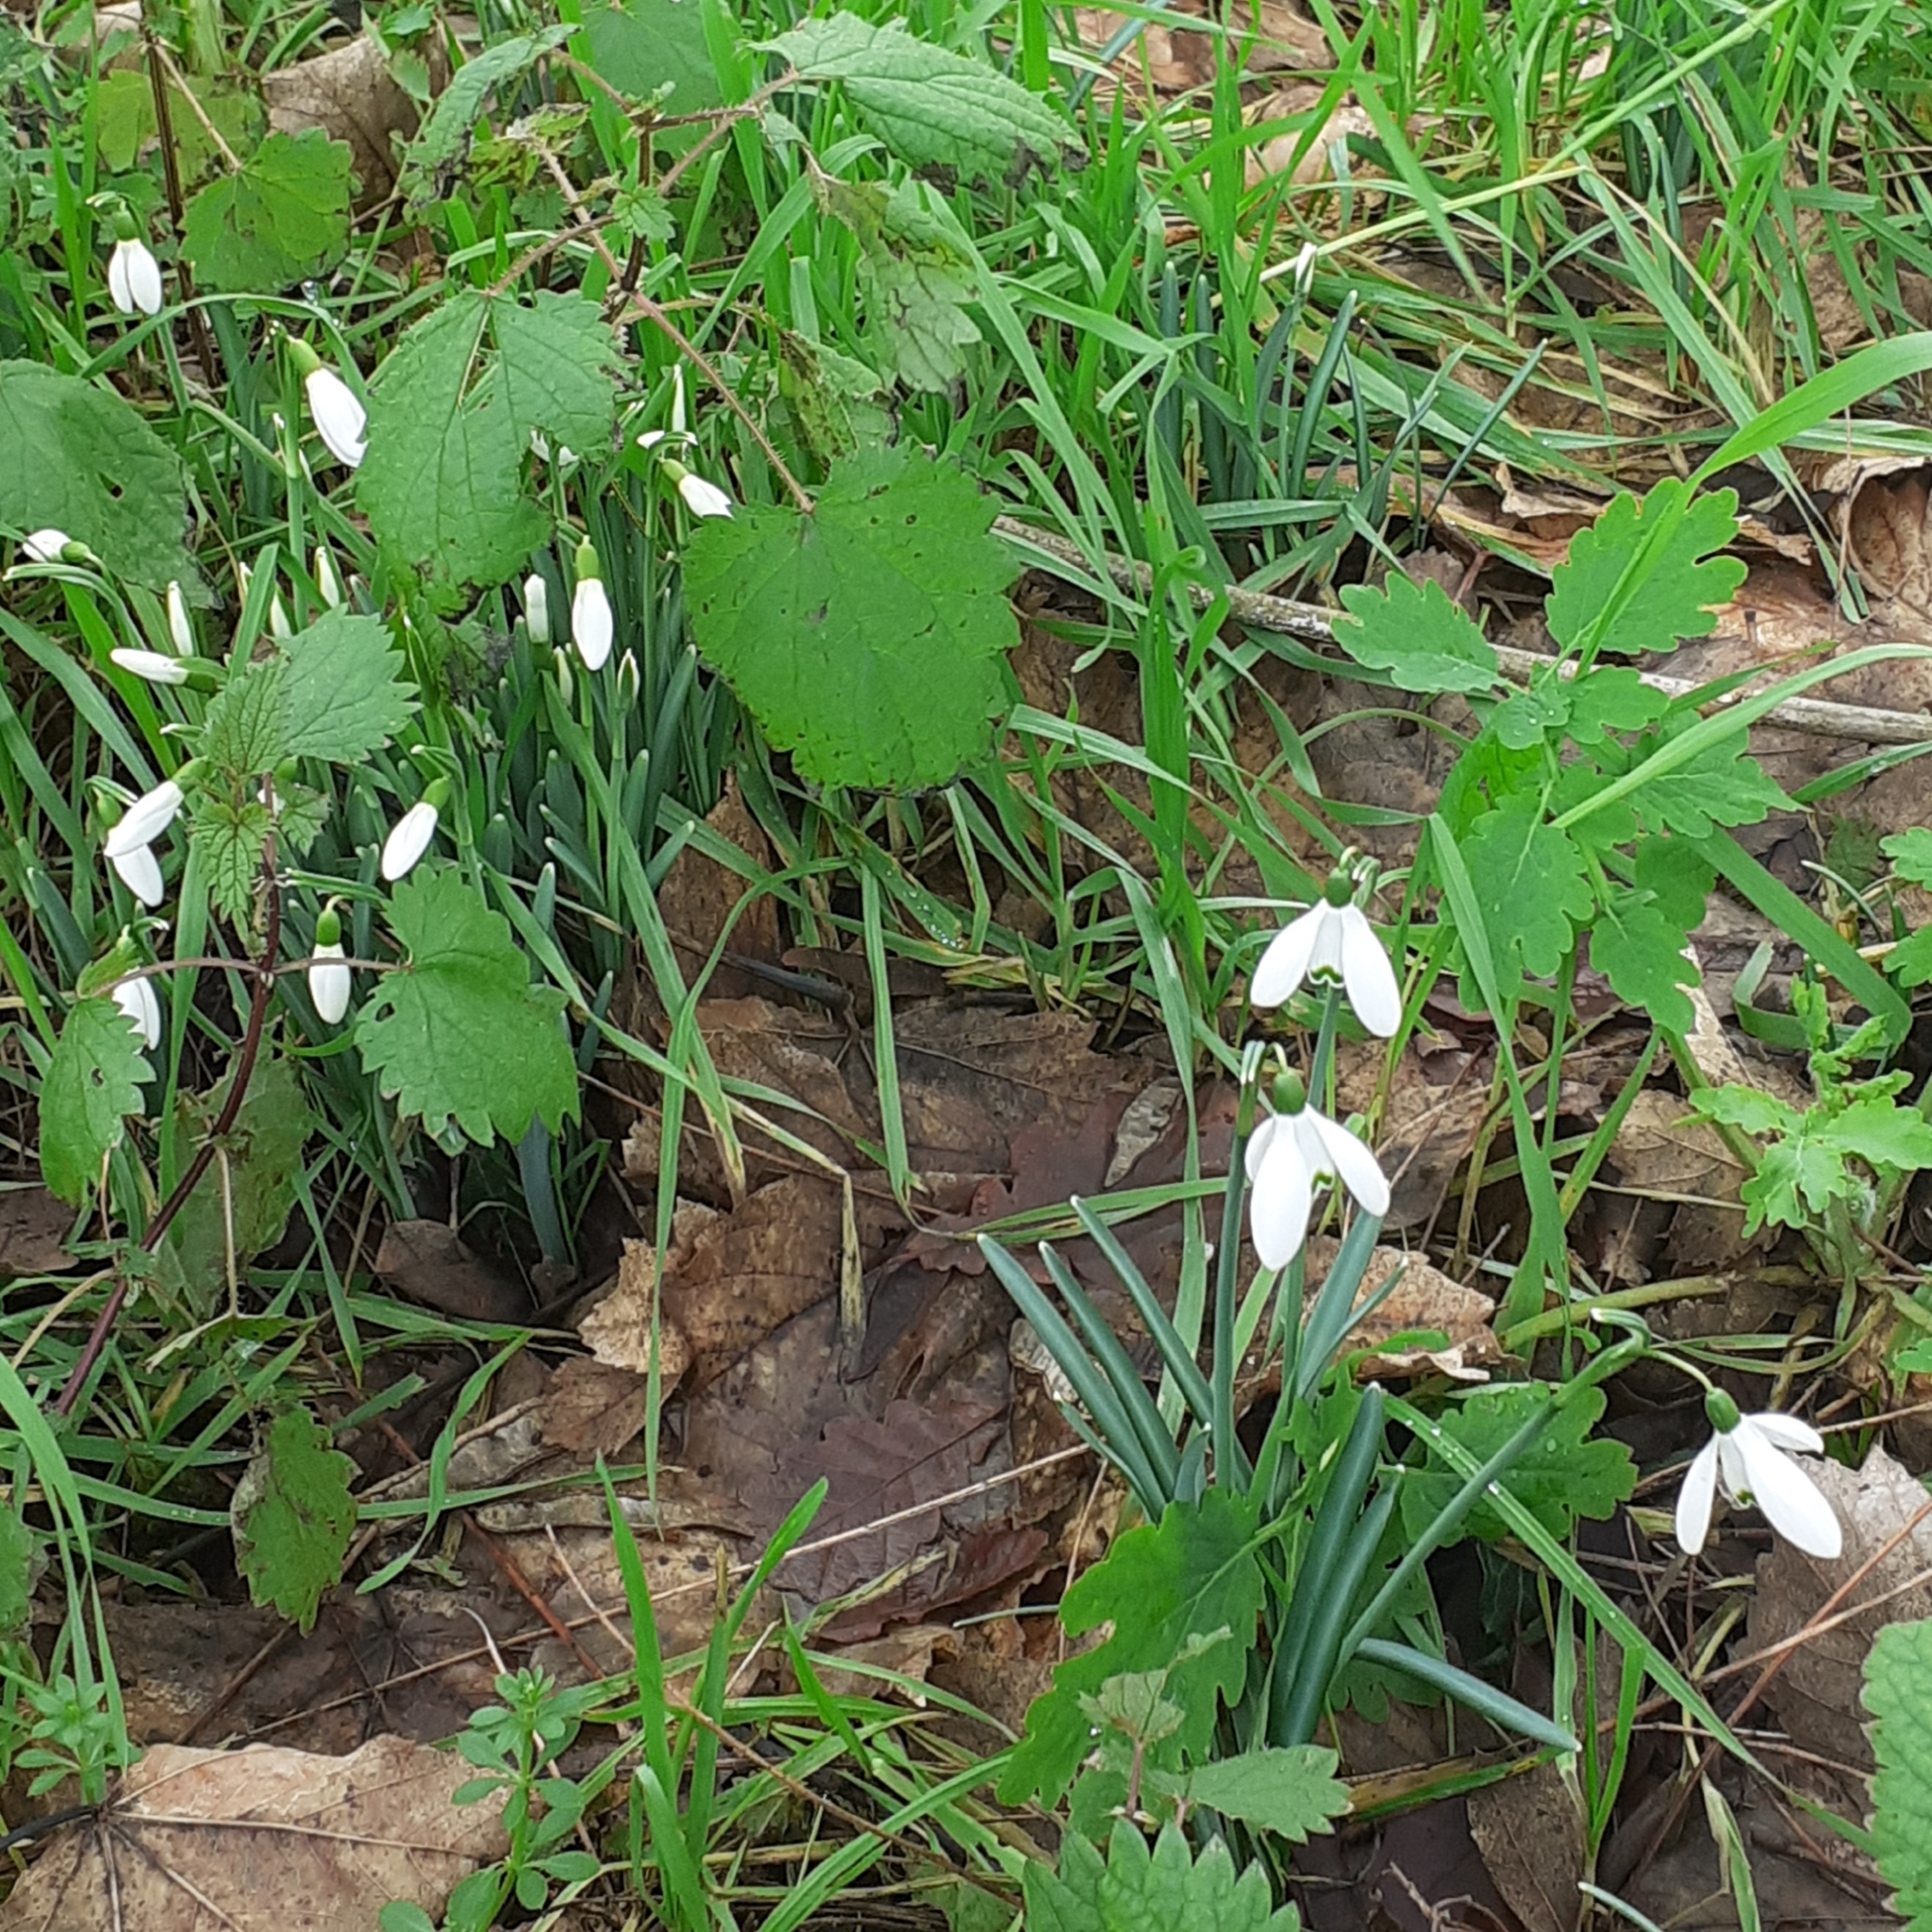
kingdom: Plantae
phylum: Tracheophyta
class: Liliopsida
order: Asparagales
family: Amaryllidaceae
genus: Galanthus
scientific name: Galanthus nivalis
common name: Snowdrop
